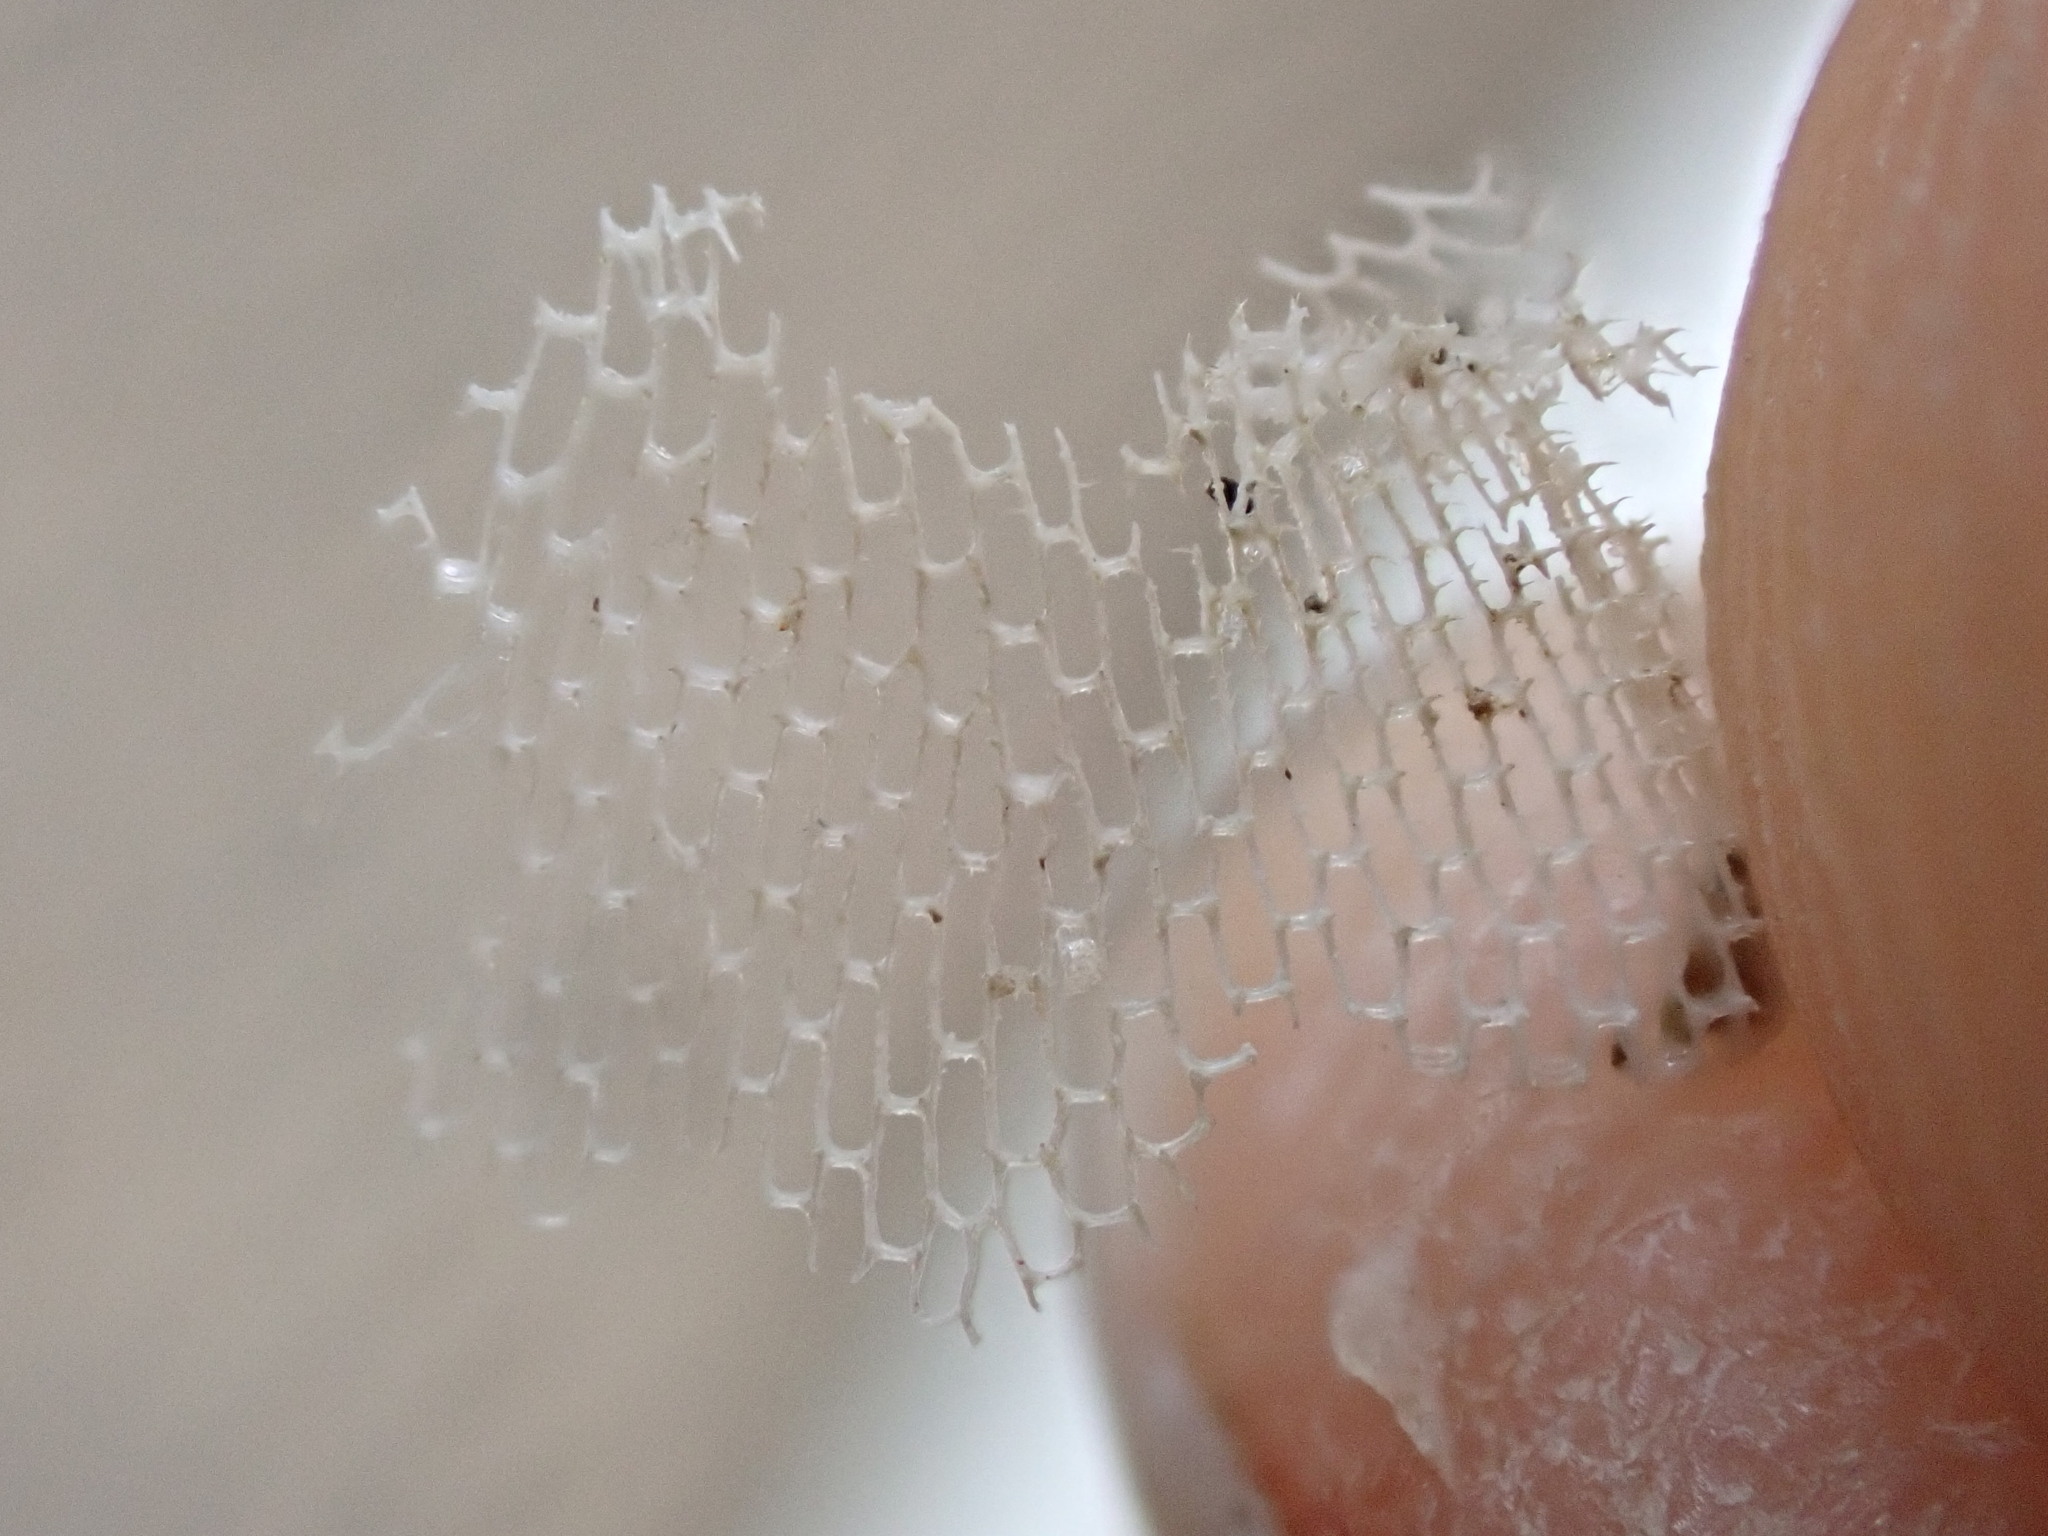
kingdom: Animalia
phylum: Bryozoa
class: Gymnolaemata
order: Cheilostomatida
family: Membraniporidae
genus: Membranipora
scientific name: Membranipora membranacea
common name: Sea mat
